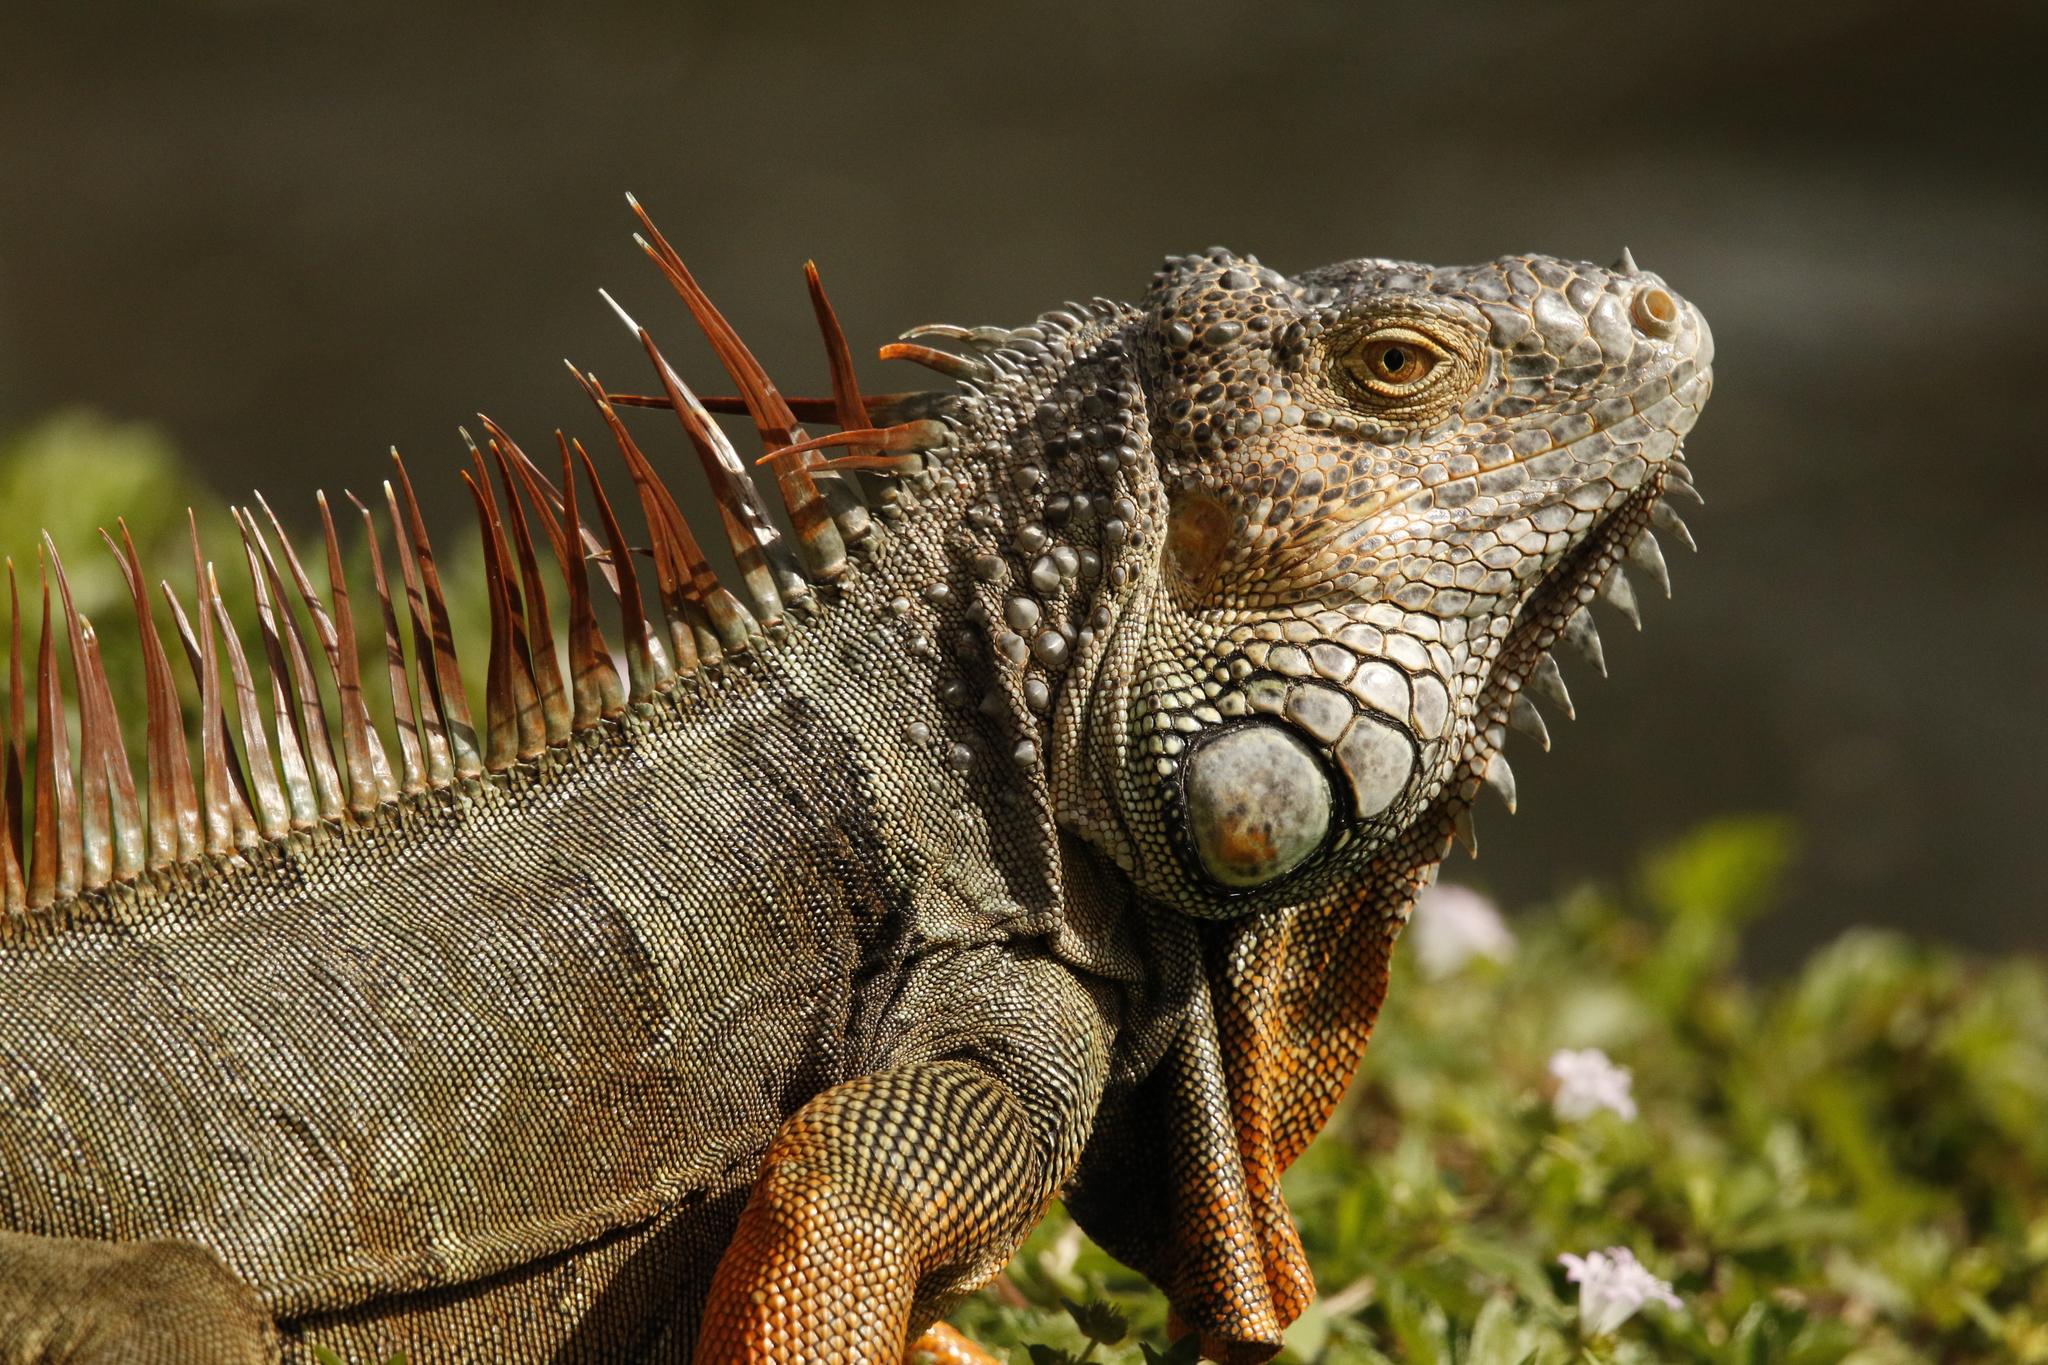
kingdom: Animalia
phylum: Chordata
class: Squamata
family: Iguanidae
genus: Iguana
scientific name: Iguana iguana
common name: Green iguana
